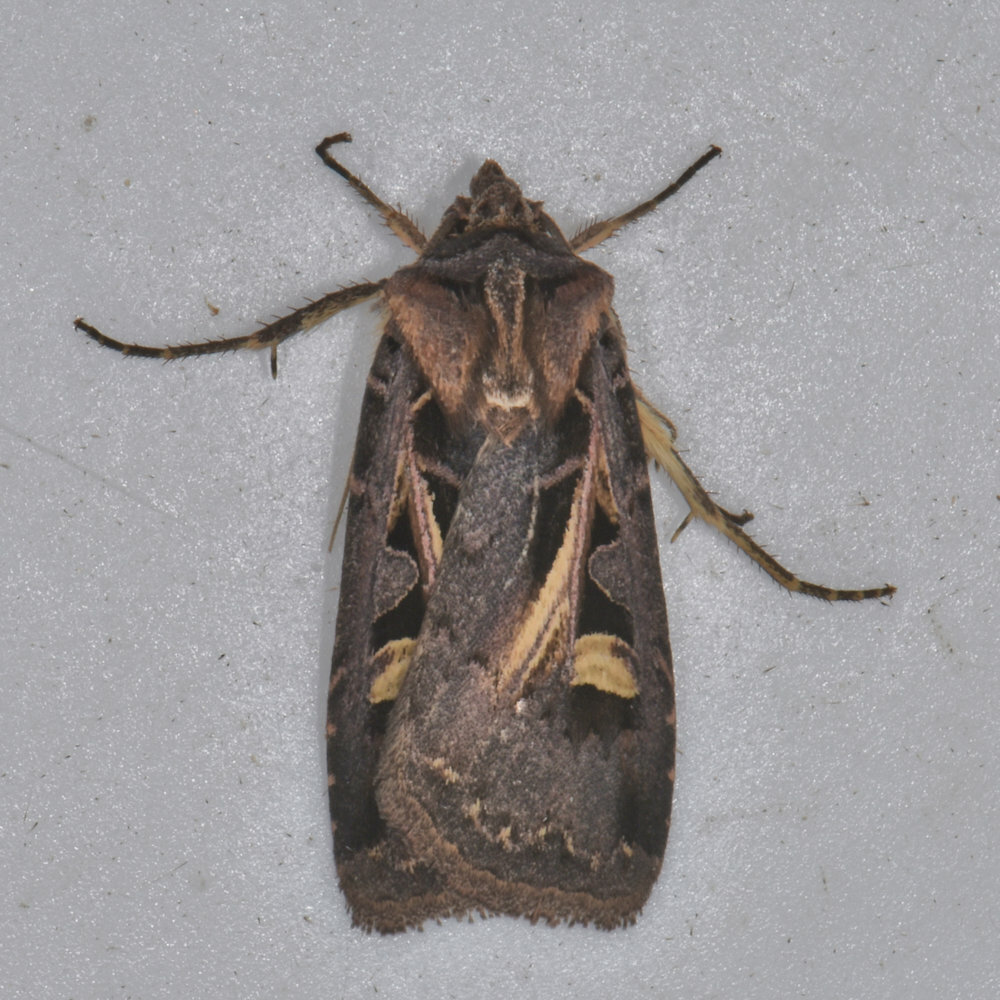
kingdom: Animalia
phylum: Arthropoda
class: Insecta
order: Lepidoptera
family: Noctuidae
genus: Feltia
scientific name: Feltia herilis
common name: Master's dart
